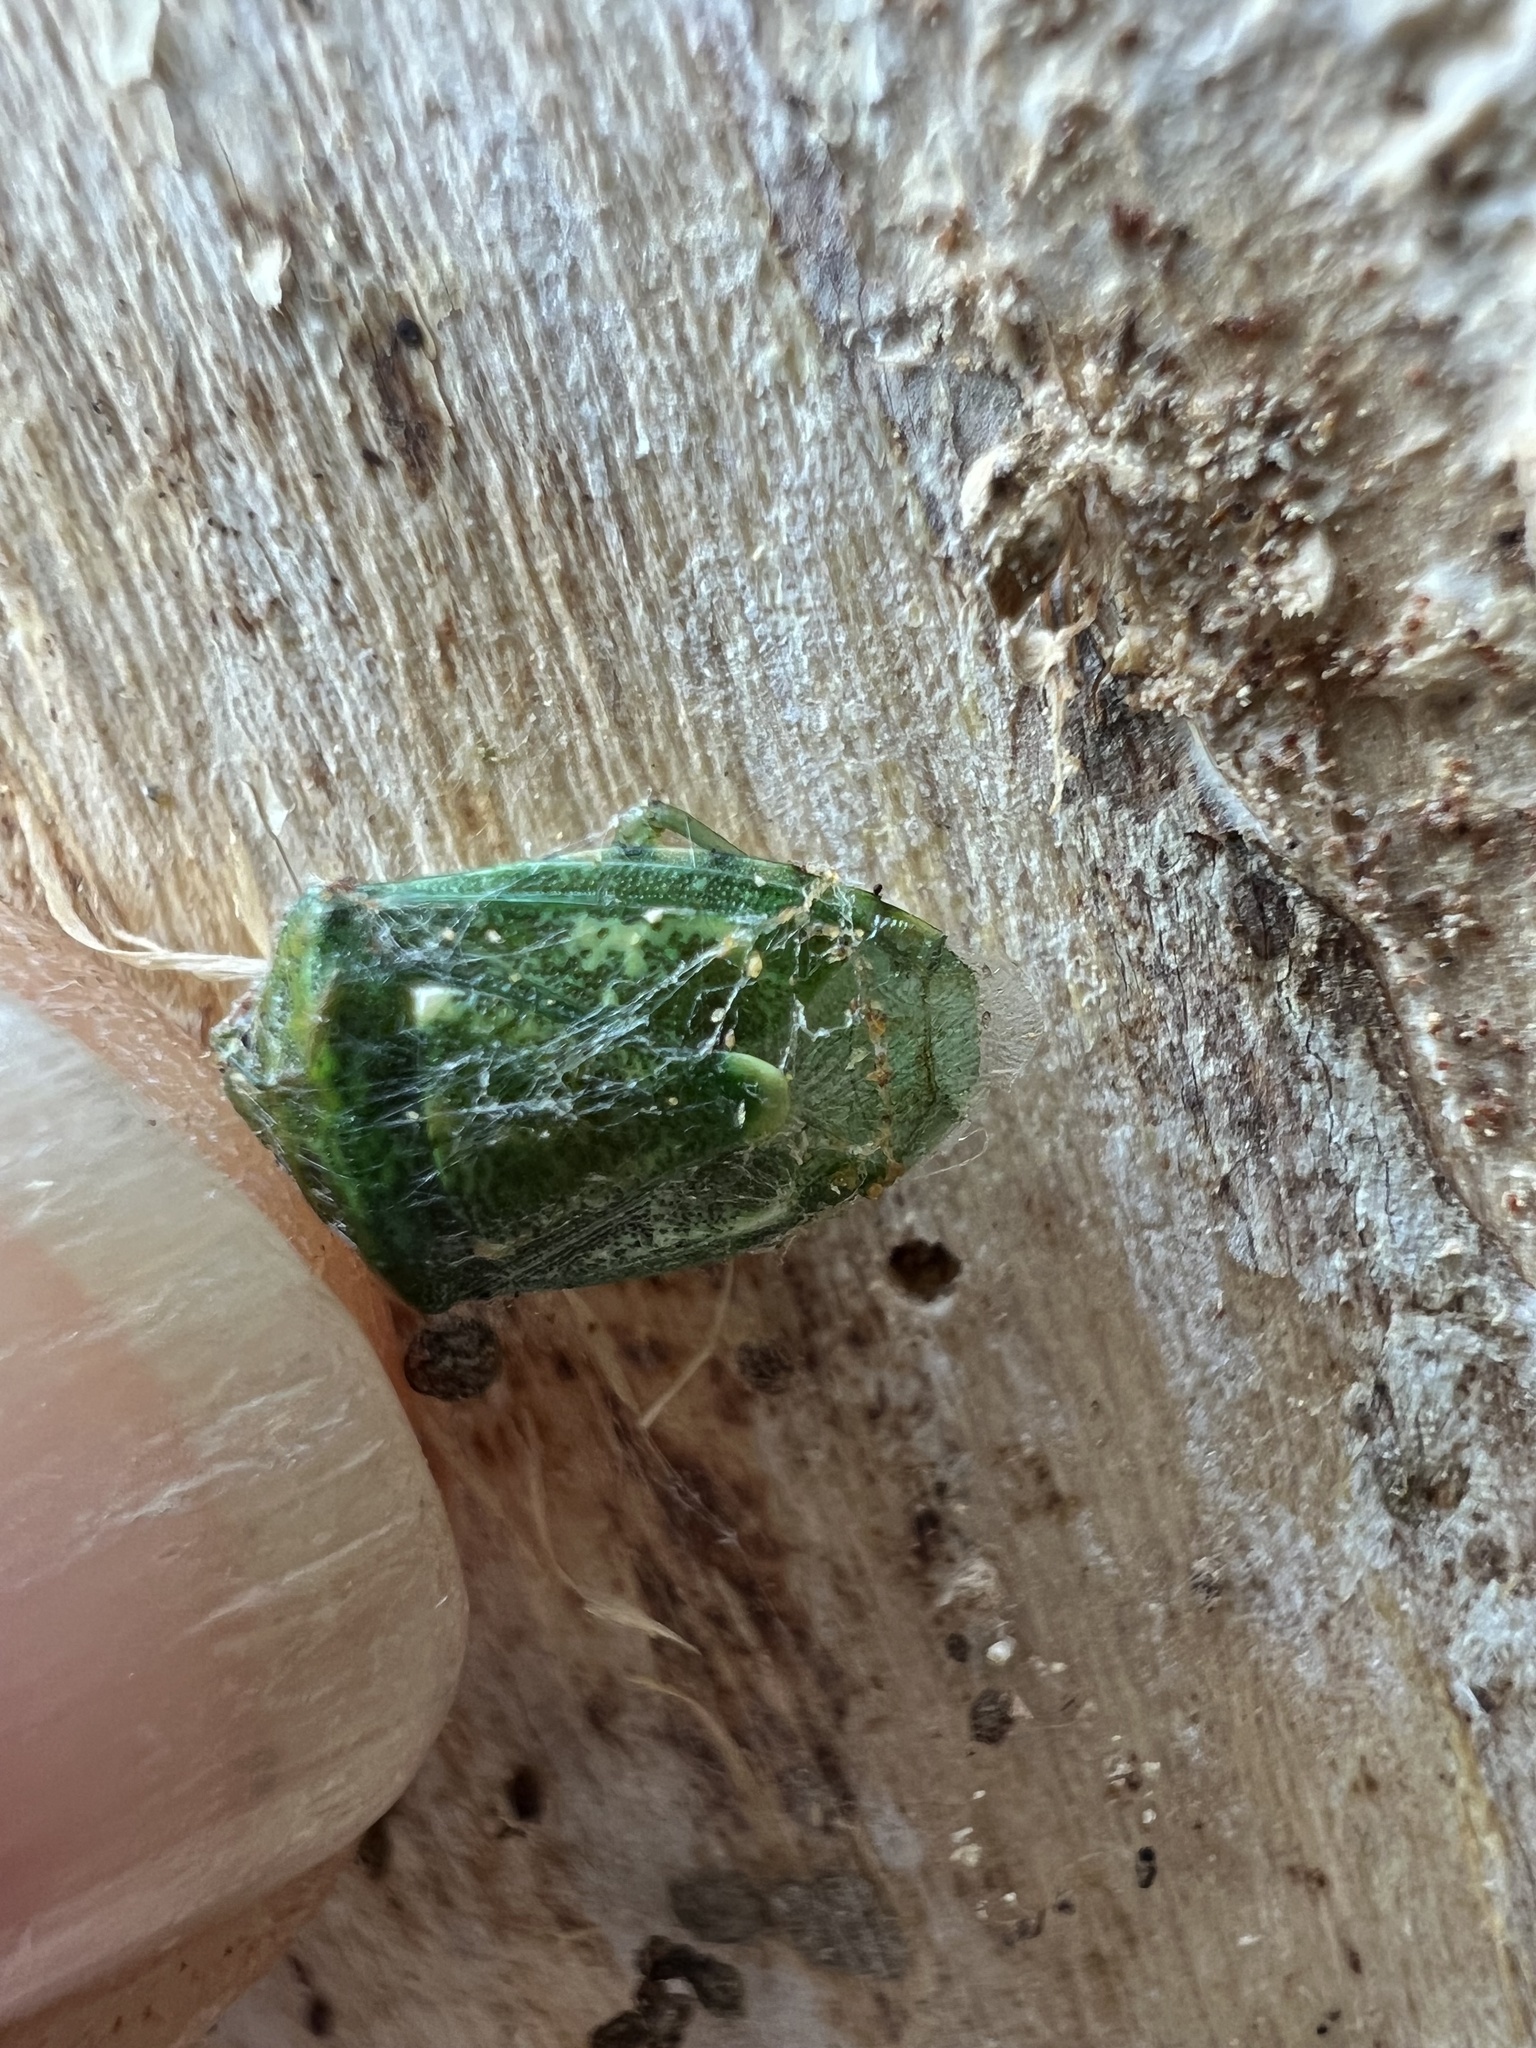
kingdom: Animalia
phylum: Arthropoda
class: Insecta
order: Hemiptera
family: Pentatomidae
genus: Banasa
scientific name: Banasa euchlora
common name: Cedar berry bug
